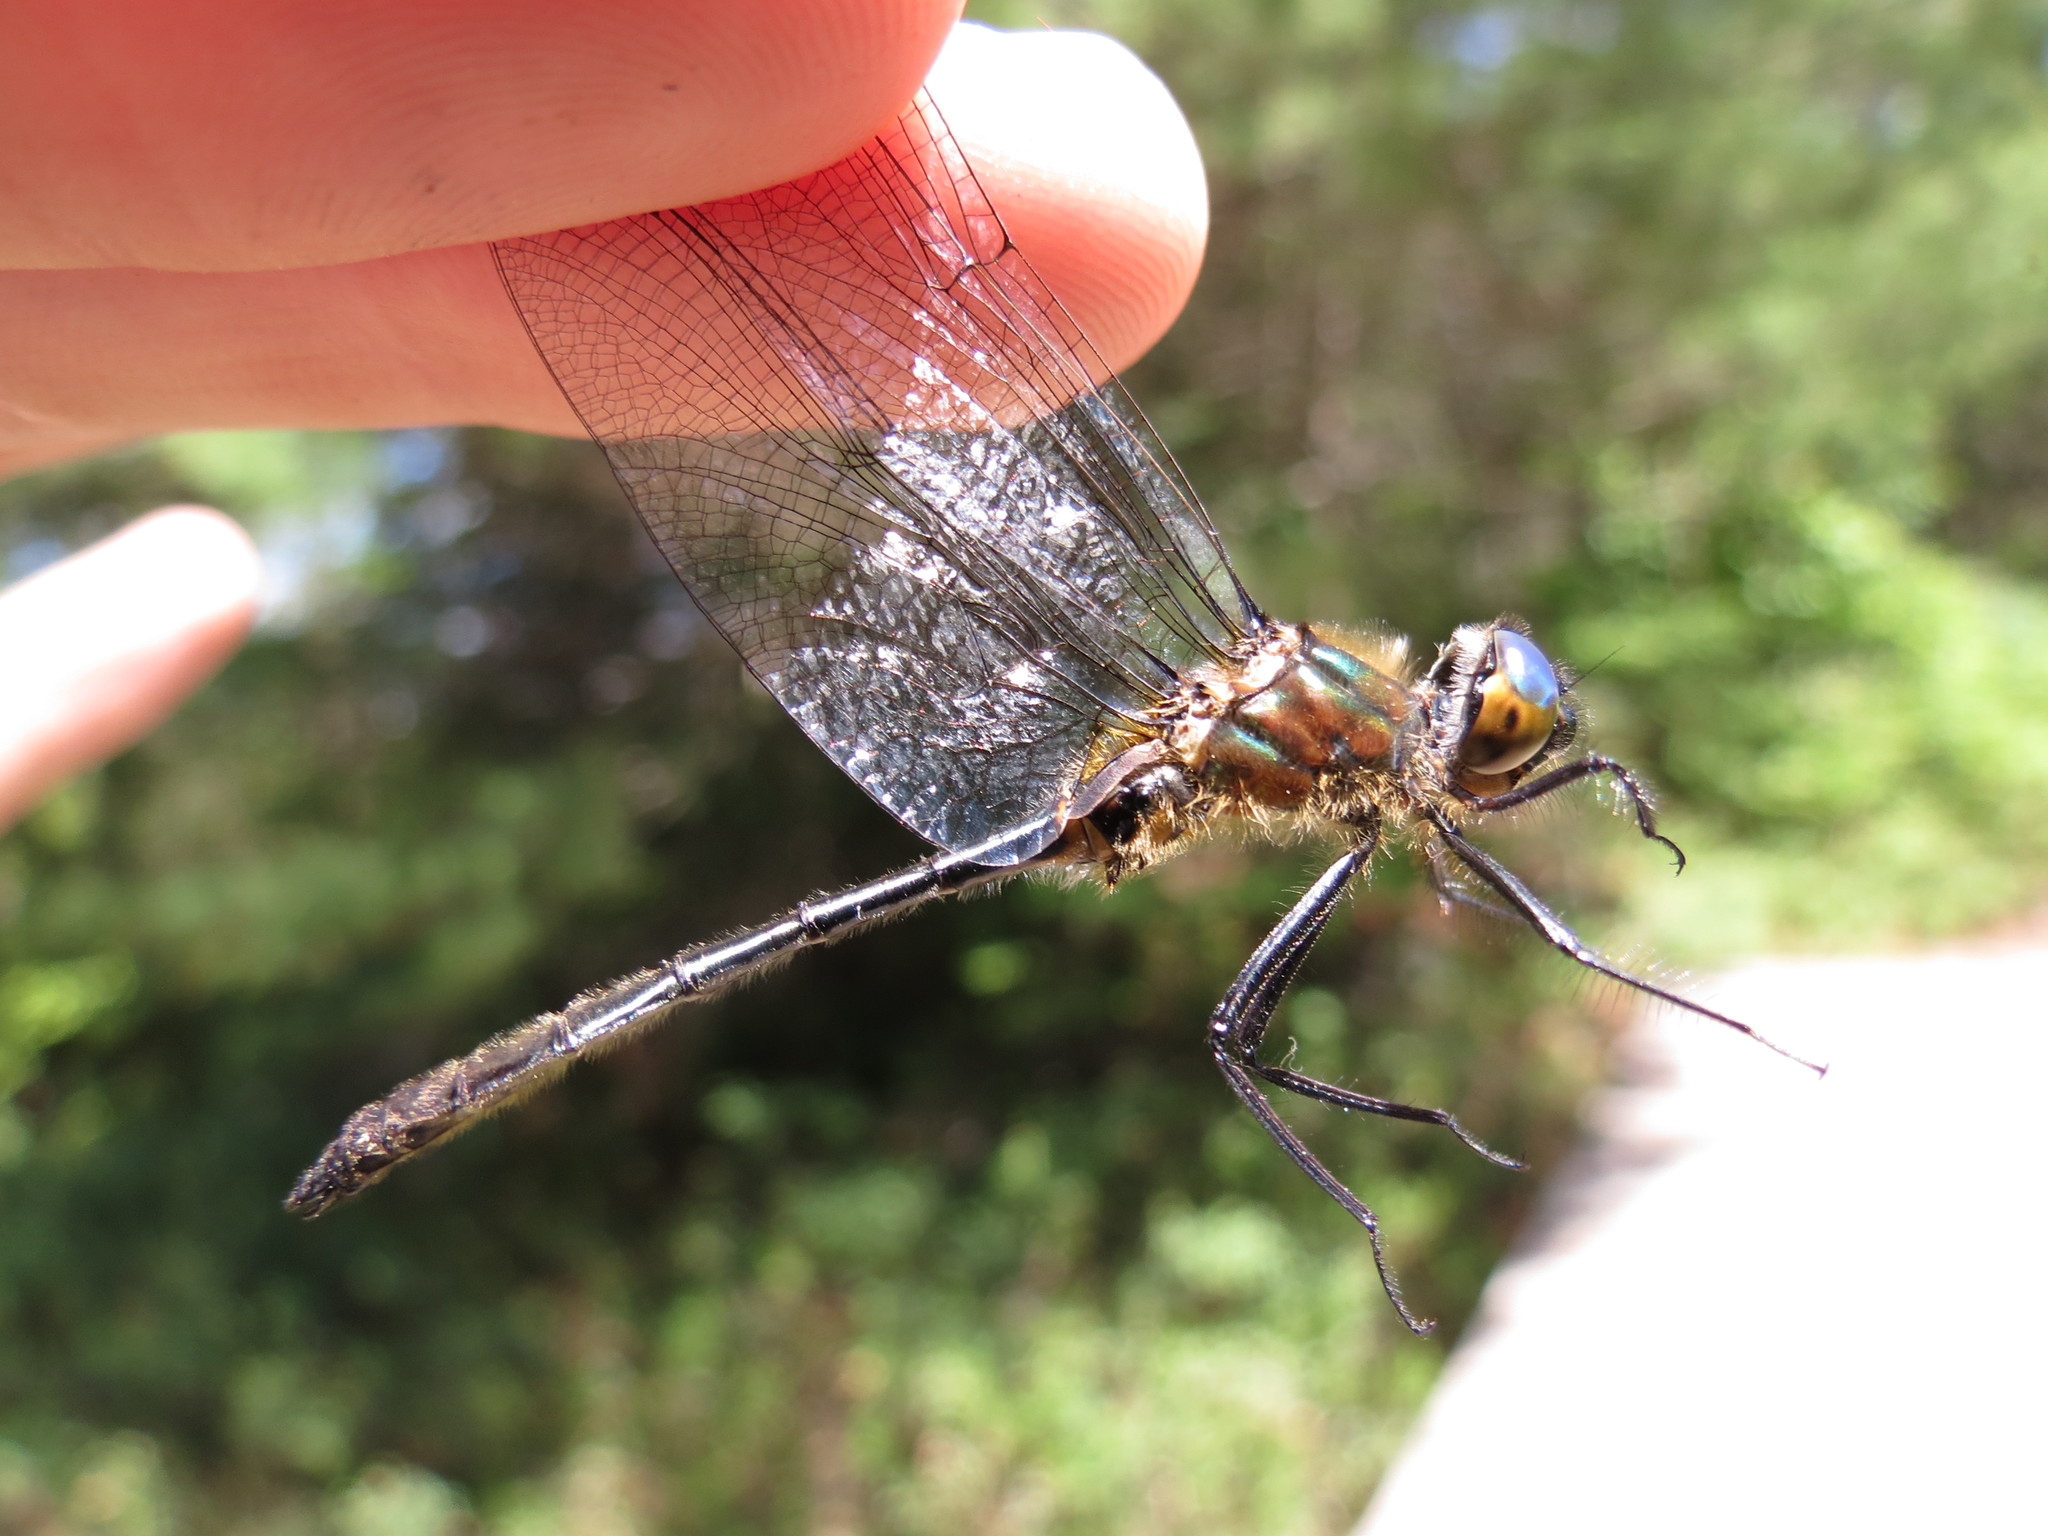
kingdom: Animalia
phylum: Arthropoda
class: Insecta
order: Odonata
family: Corduliidae
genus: Cordulia
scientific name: Cordulia shurtleffii
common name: American emerald
